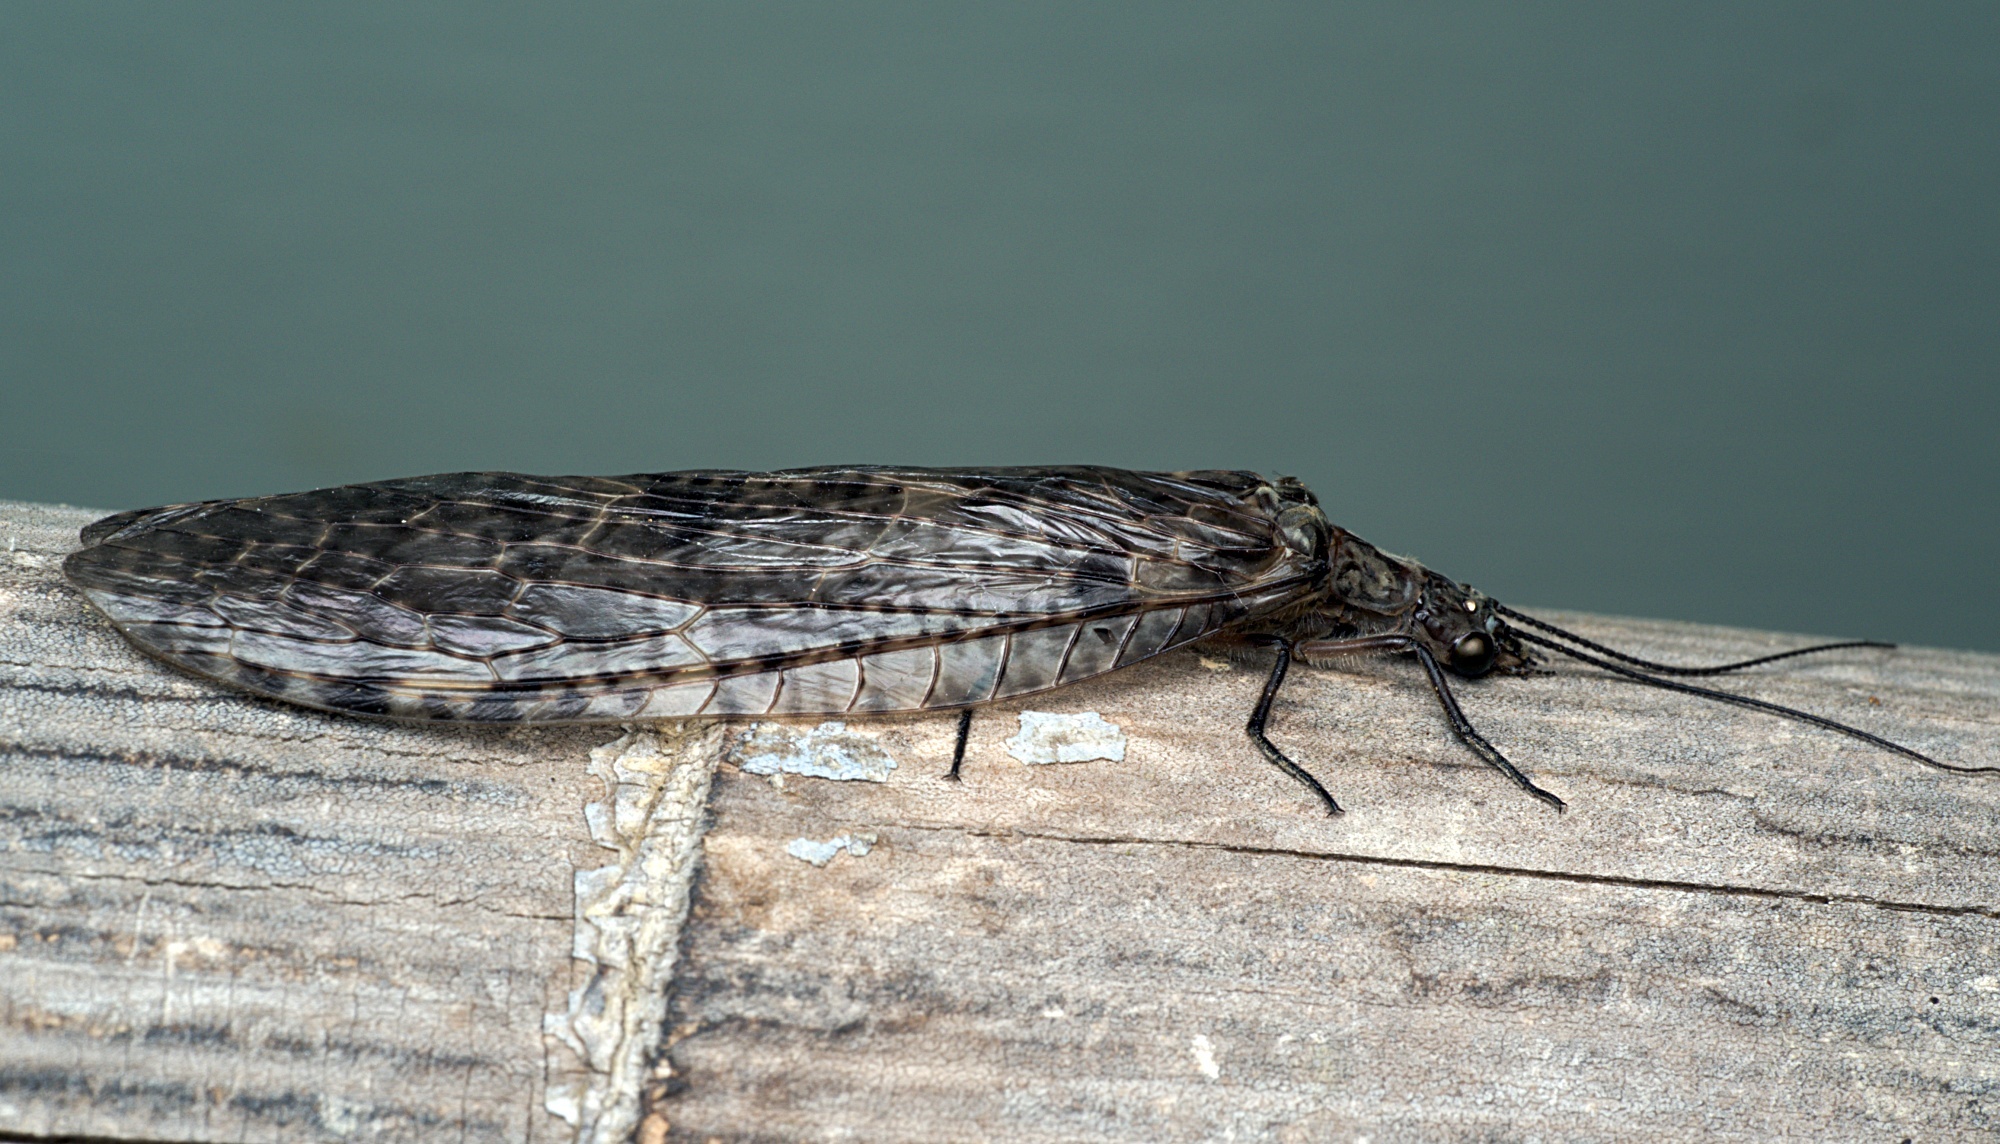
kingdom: Animalia
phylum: Arthropoda
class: Insecta
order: Megaloptera
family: Corydalidae
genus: Archichauliodes
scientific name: Archichauliodes diversus
